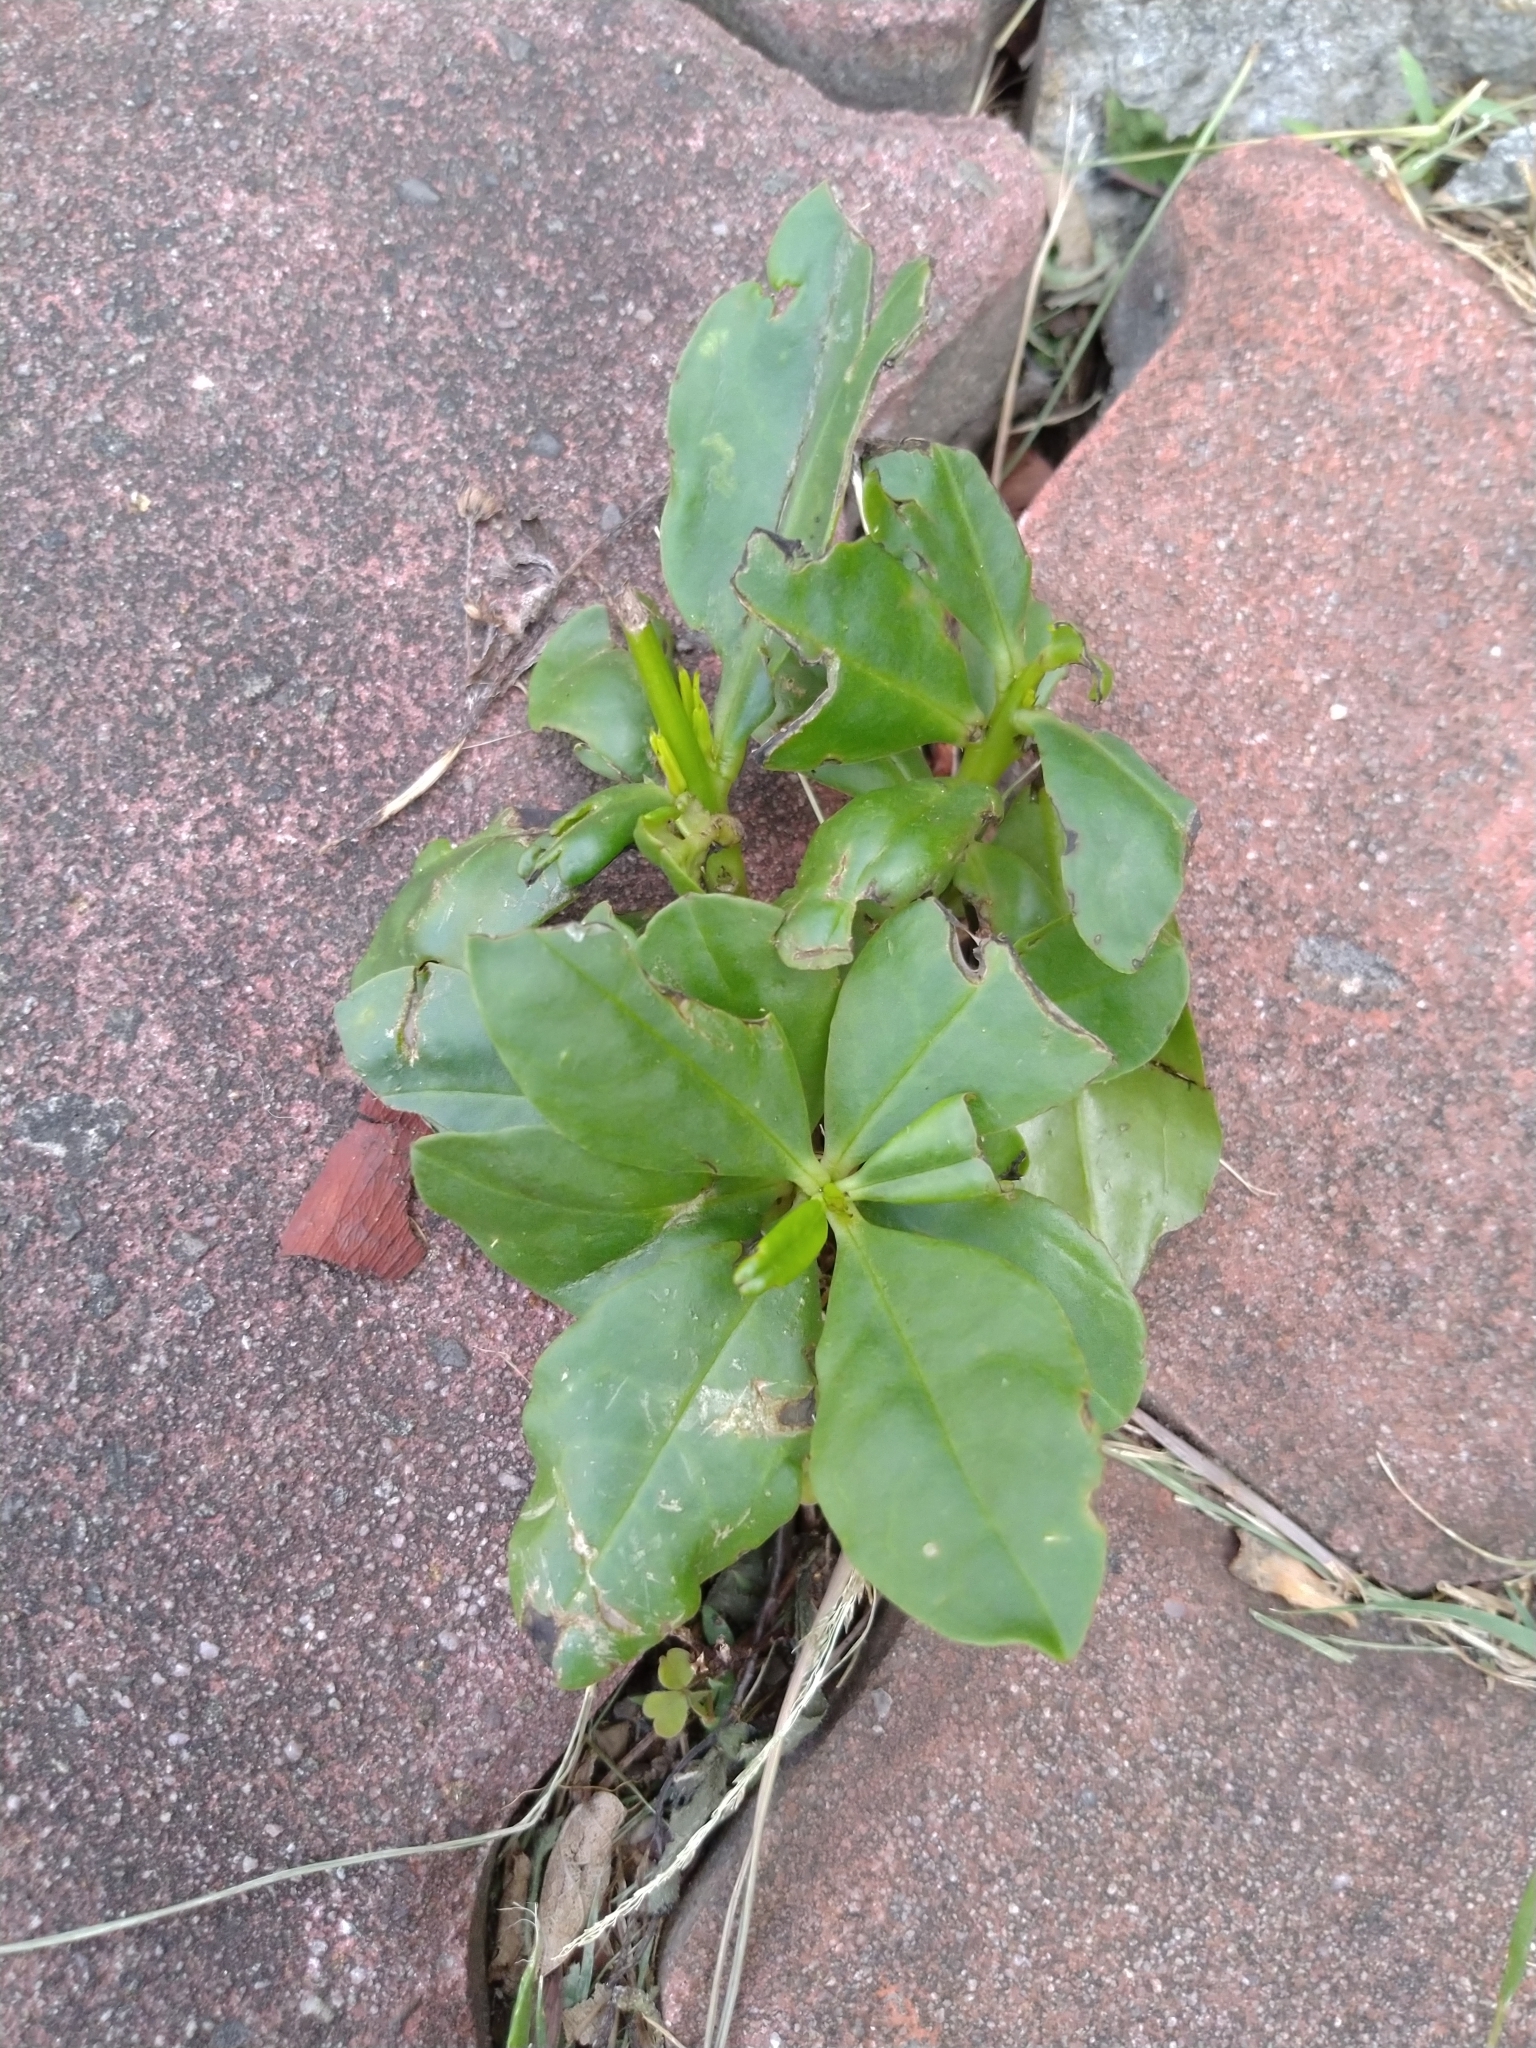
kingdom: Plantae
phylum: Tracheophyta
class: Magnoliopsida
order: Caryophyllales
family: Talinaceae
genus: Talinum
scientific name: Talinum paniculatum
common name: Jewels of opar
